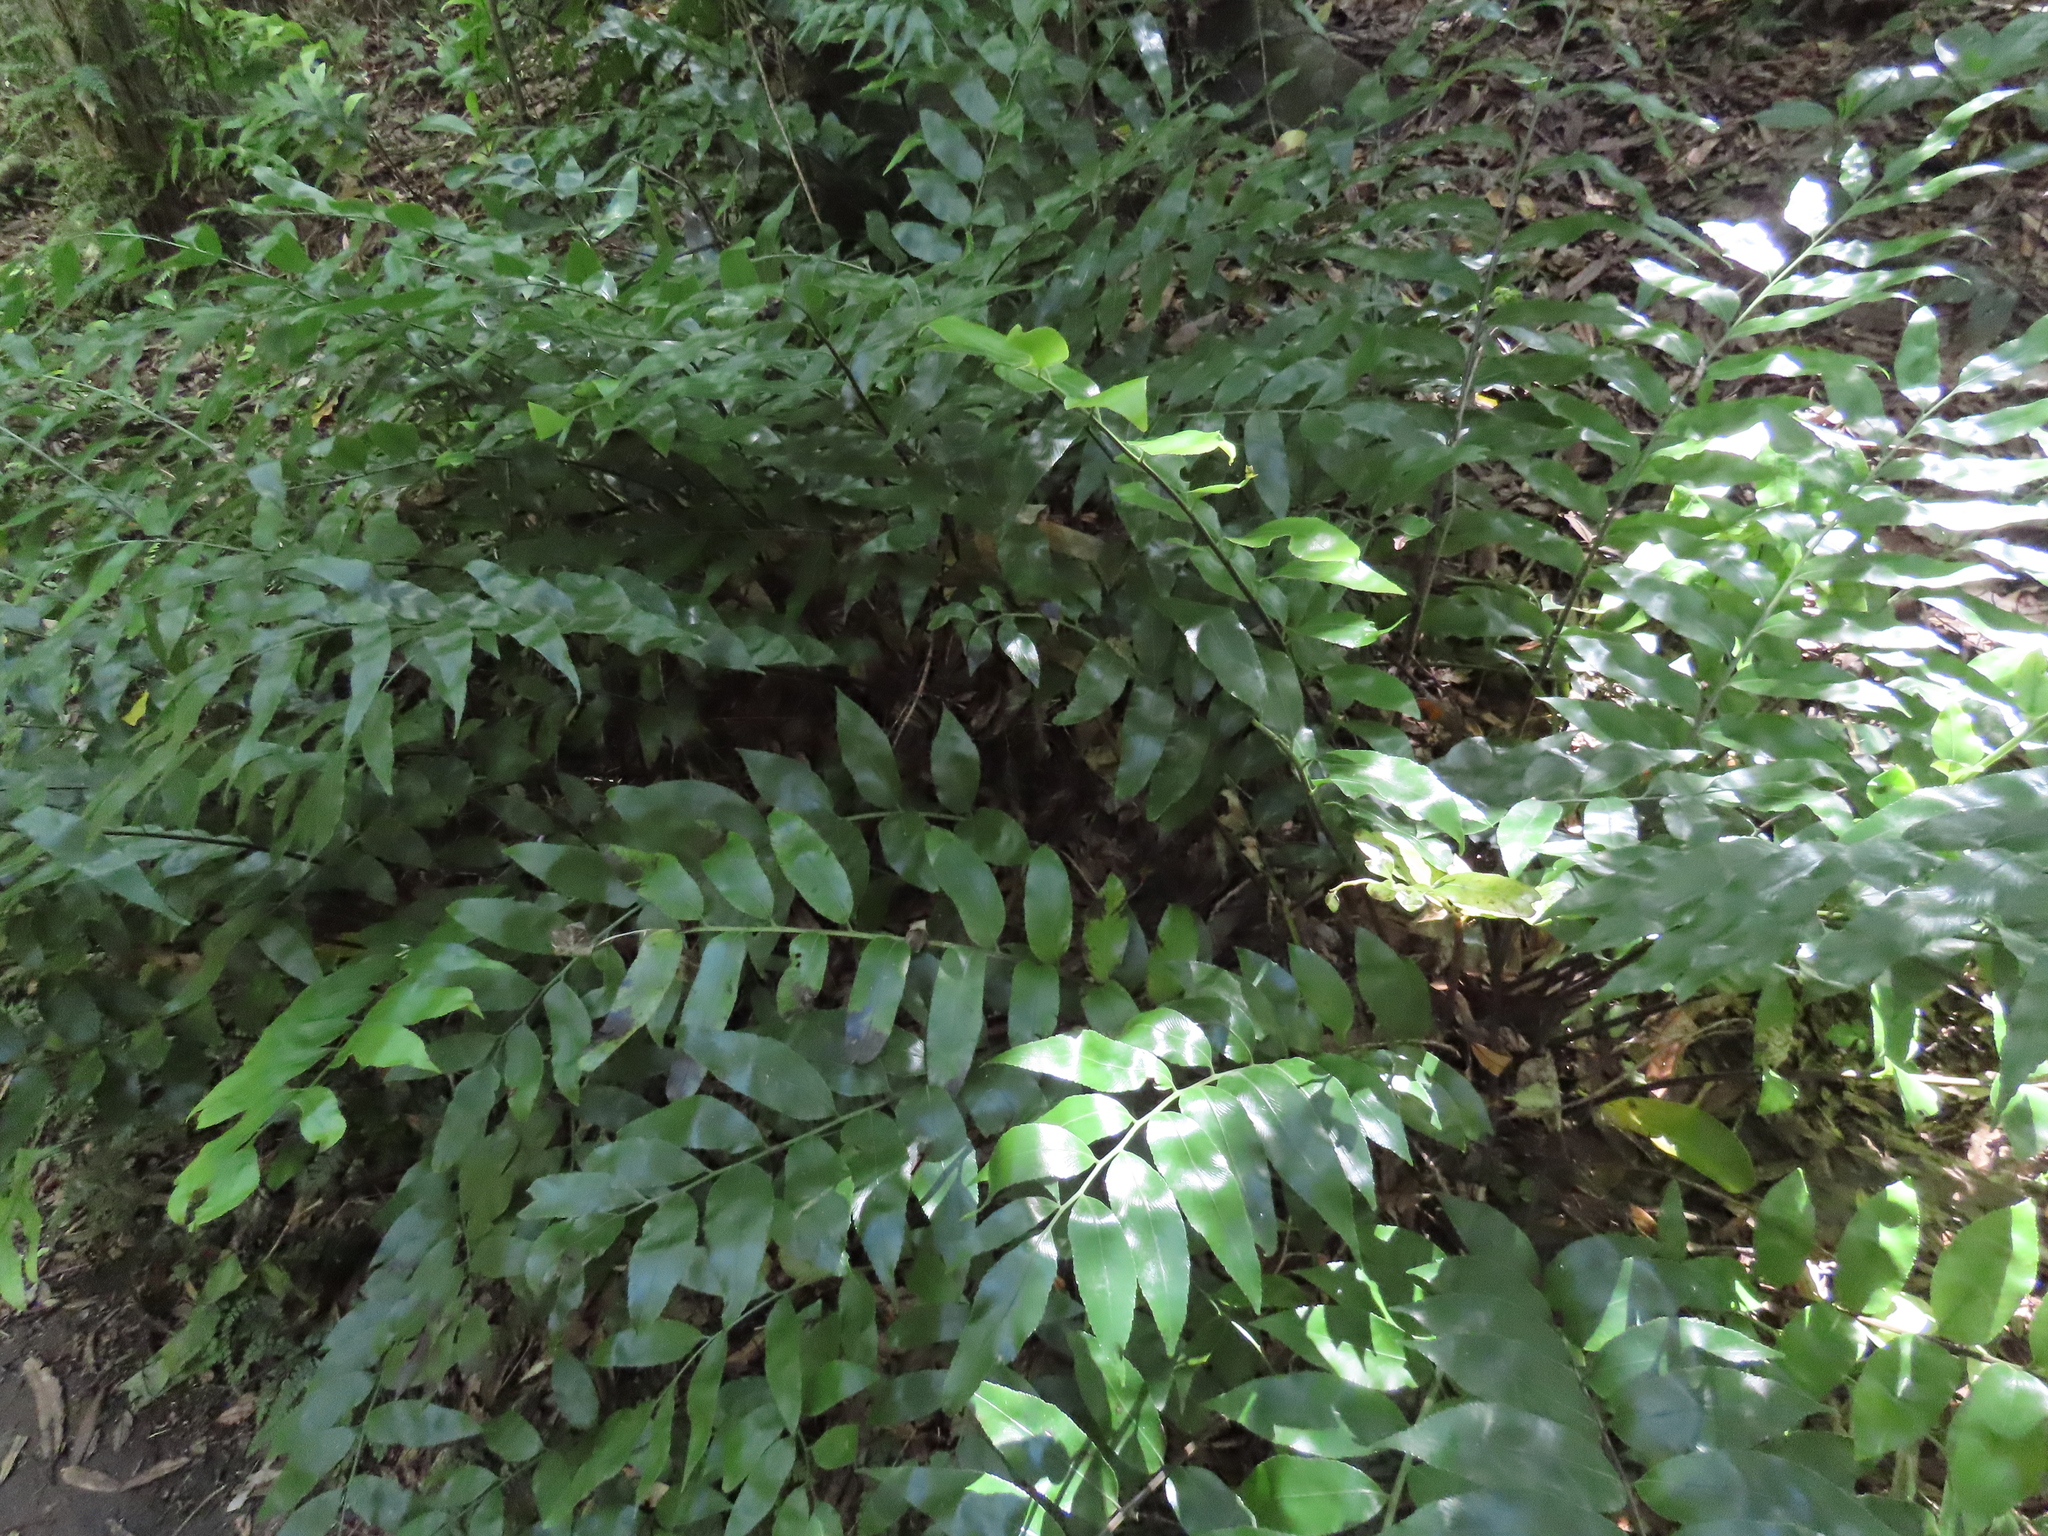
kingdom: Plantae
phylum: Tracheophyta
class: Polypodiopsida
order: Polypodiales
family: Aspleniaceae
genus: Asplenium
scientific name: Asplenium oblongifolium
